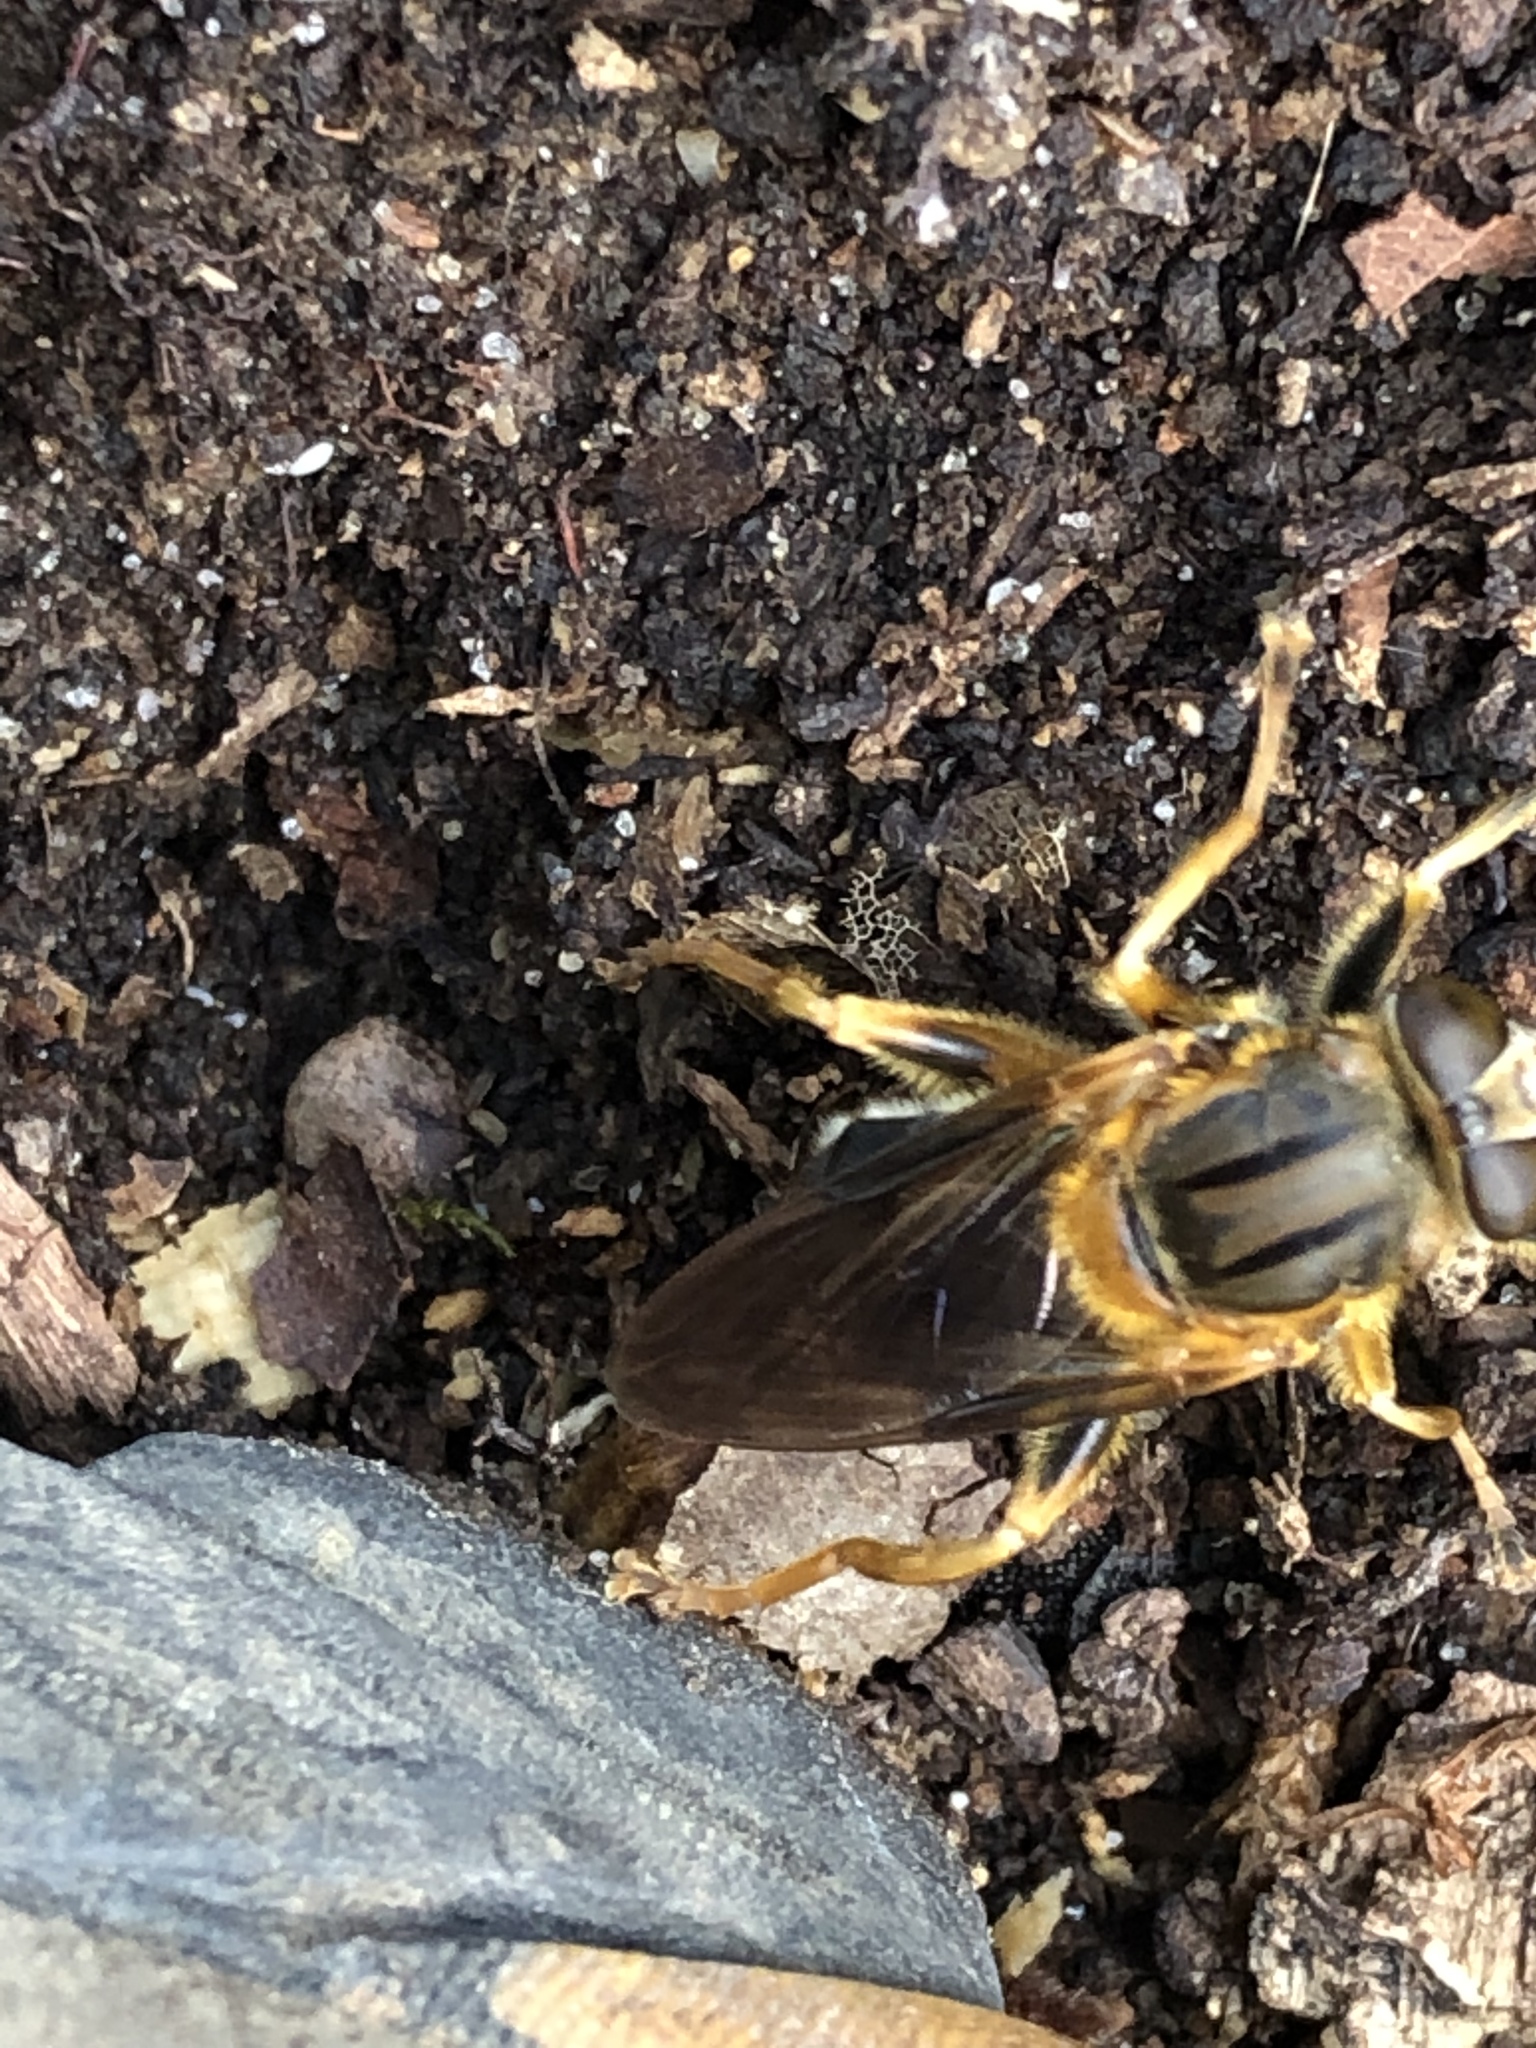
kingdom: Animalia
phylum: Arthropoda
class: Insecta
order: Diptera
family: Syrphidae
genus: Teuchocnemis
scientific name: Teuchocnemis lituratus
